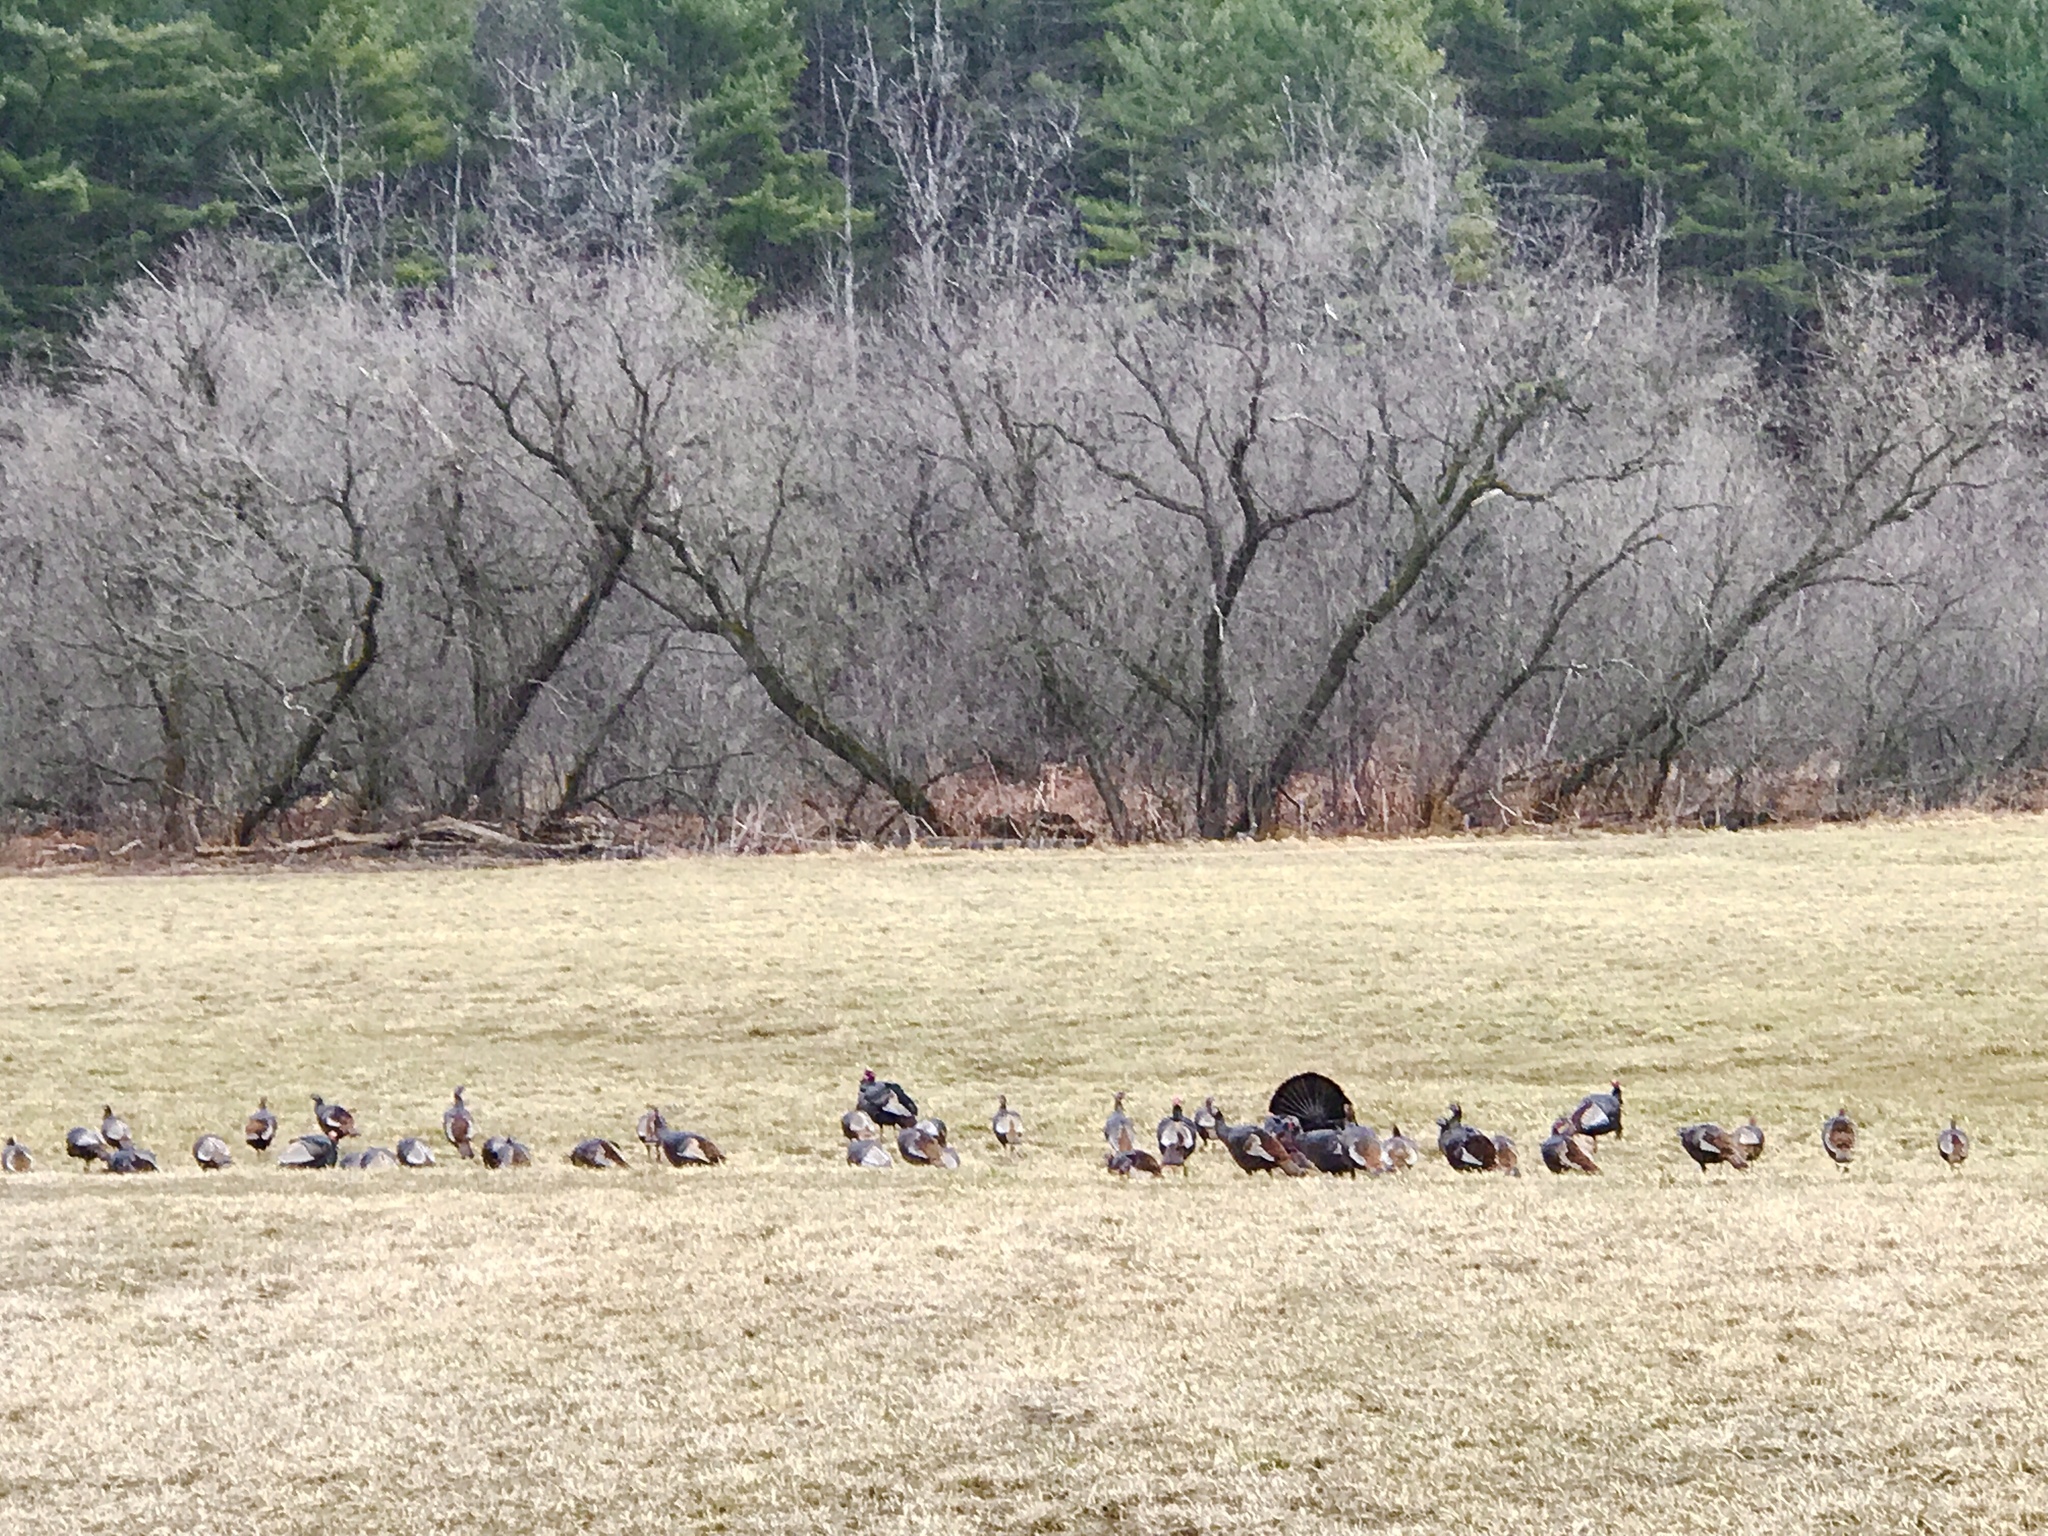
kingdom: Animalia
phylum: Chordata
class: Aves
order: Galliformes
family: Phasianidae
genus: Meleagris
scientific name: Meleagris gallopavo
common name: Wild turkey
